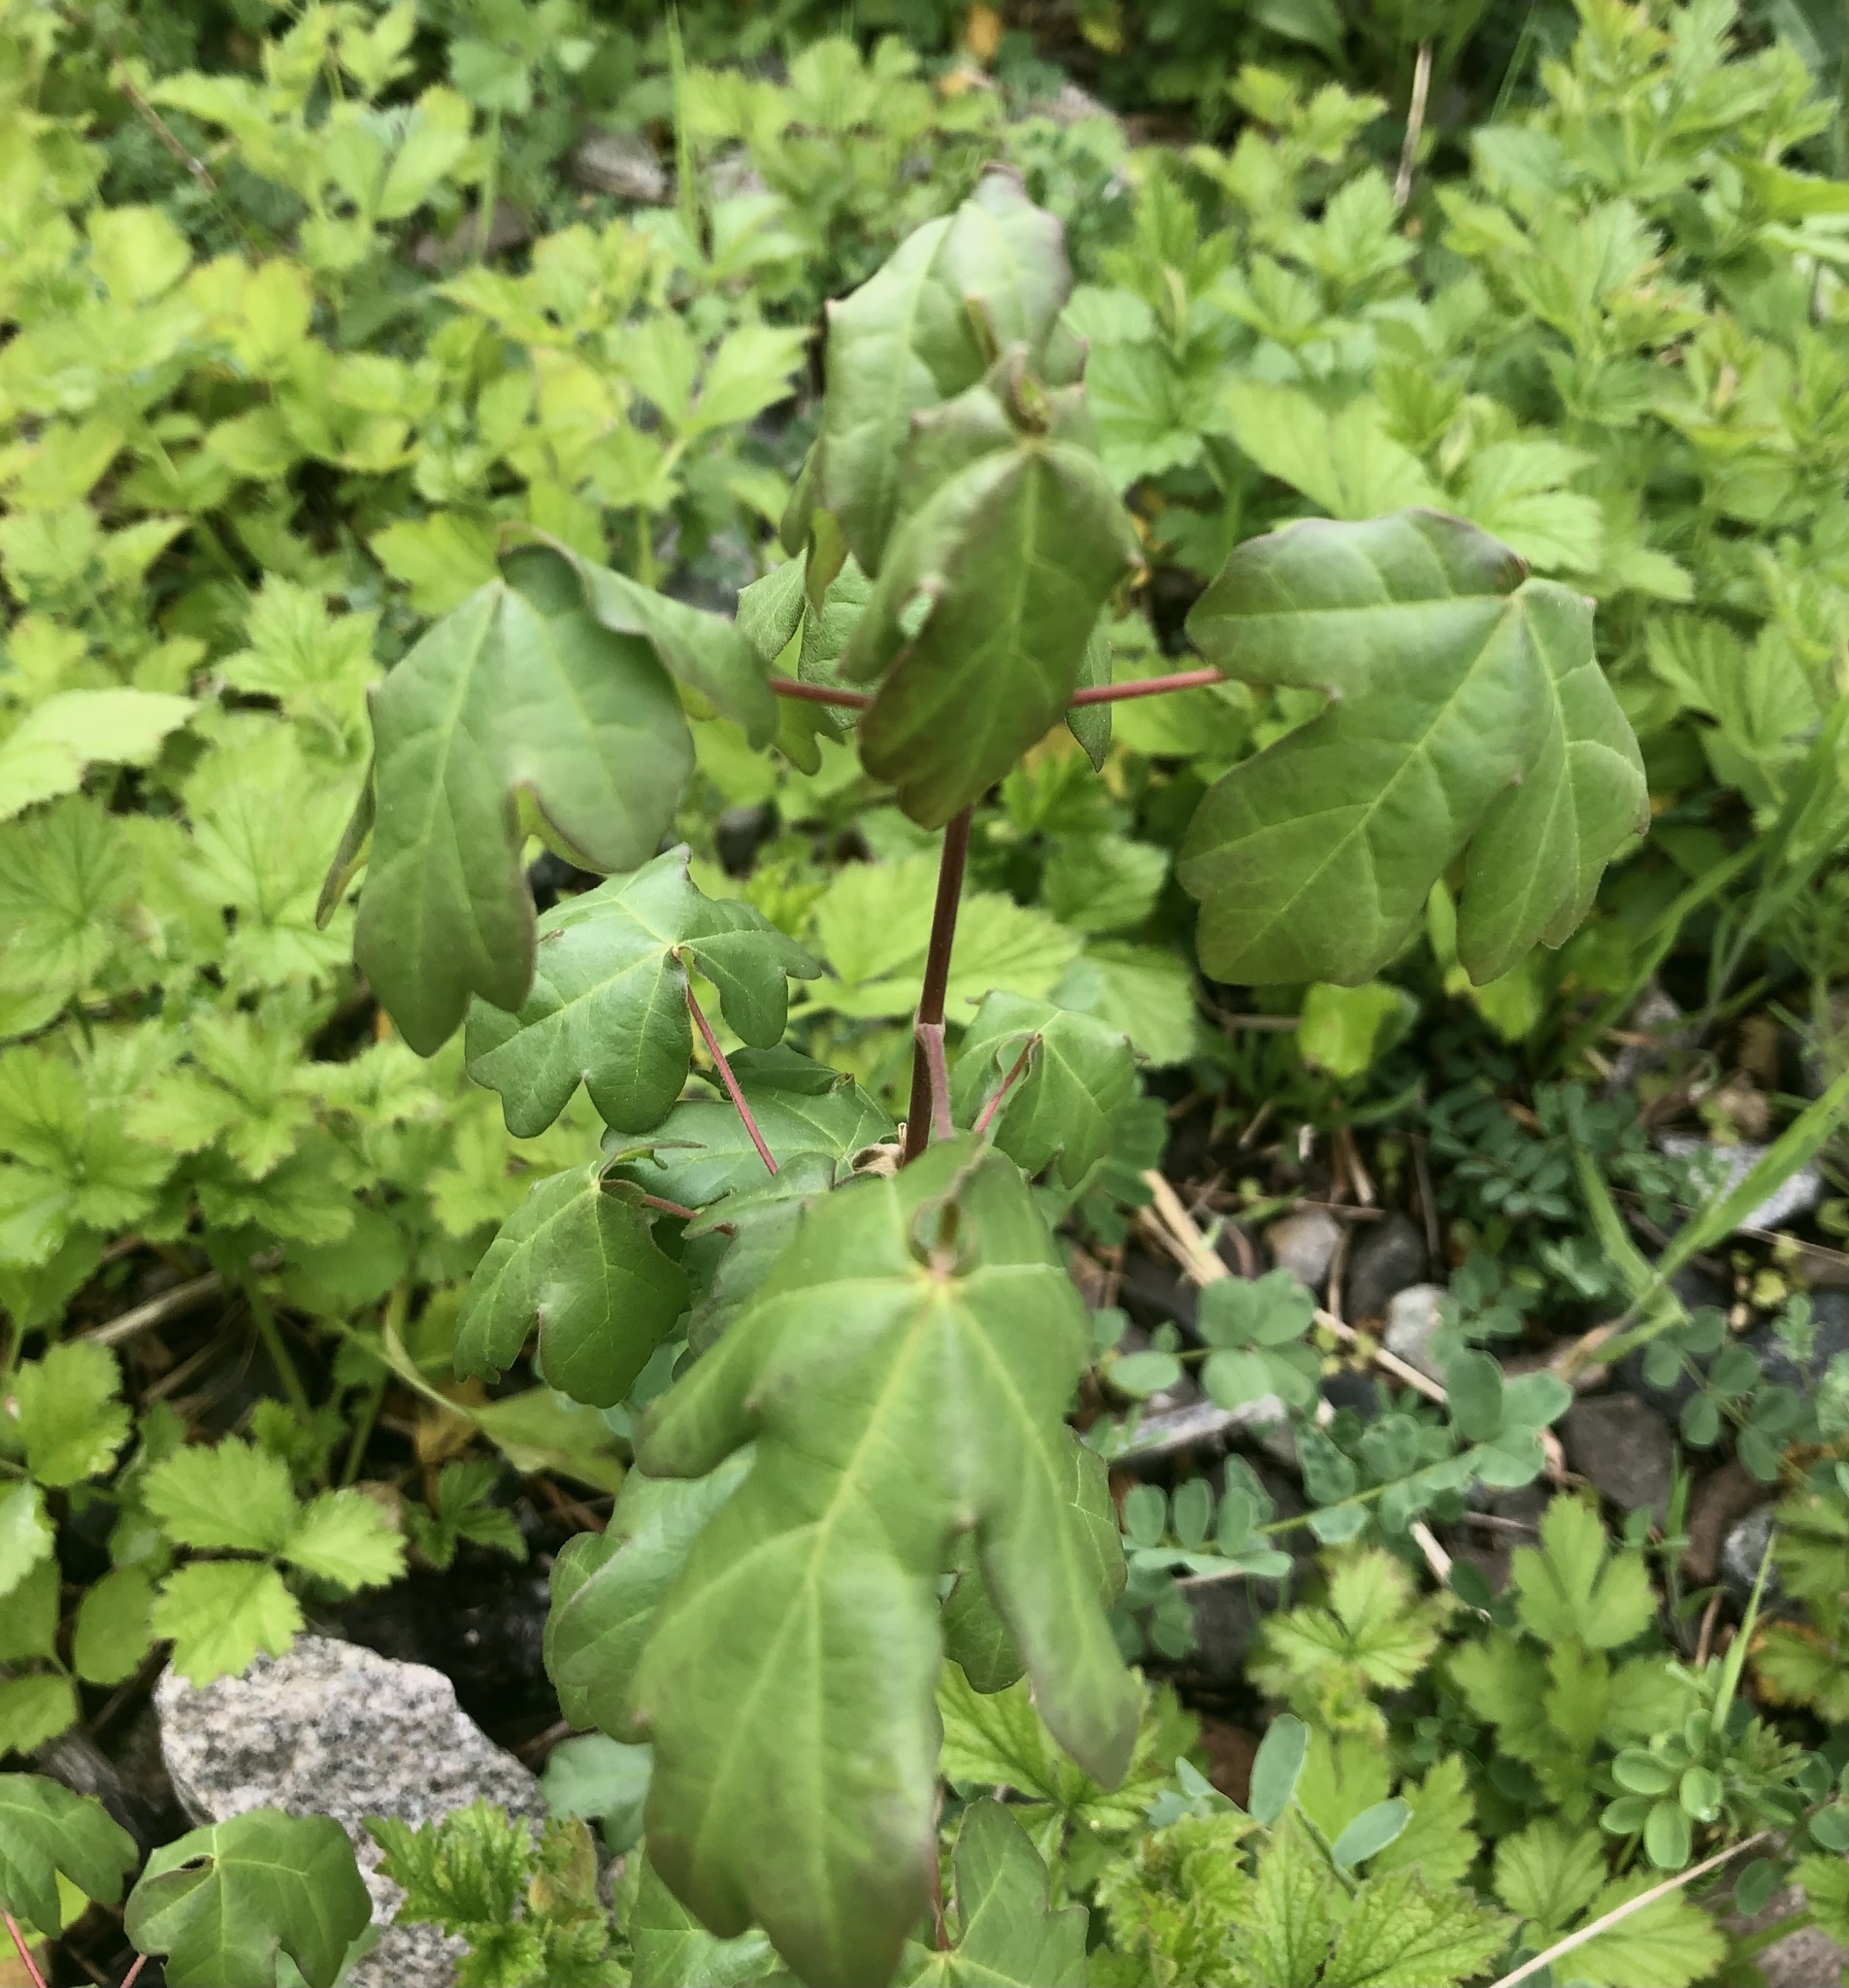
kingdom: Plantae
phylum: Tracheophyta
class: Magnoliopsida
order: Sapindales
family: Sapindaceae
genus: Acer
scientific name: Acer campestre
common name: Field maple
